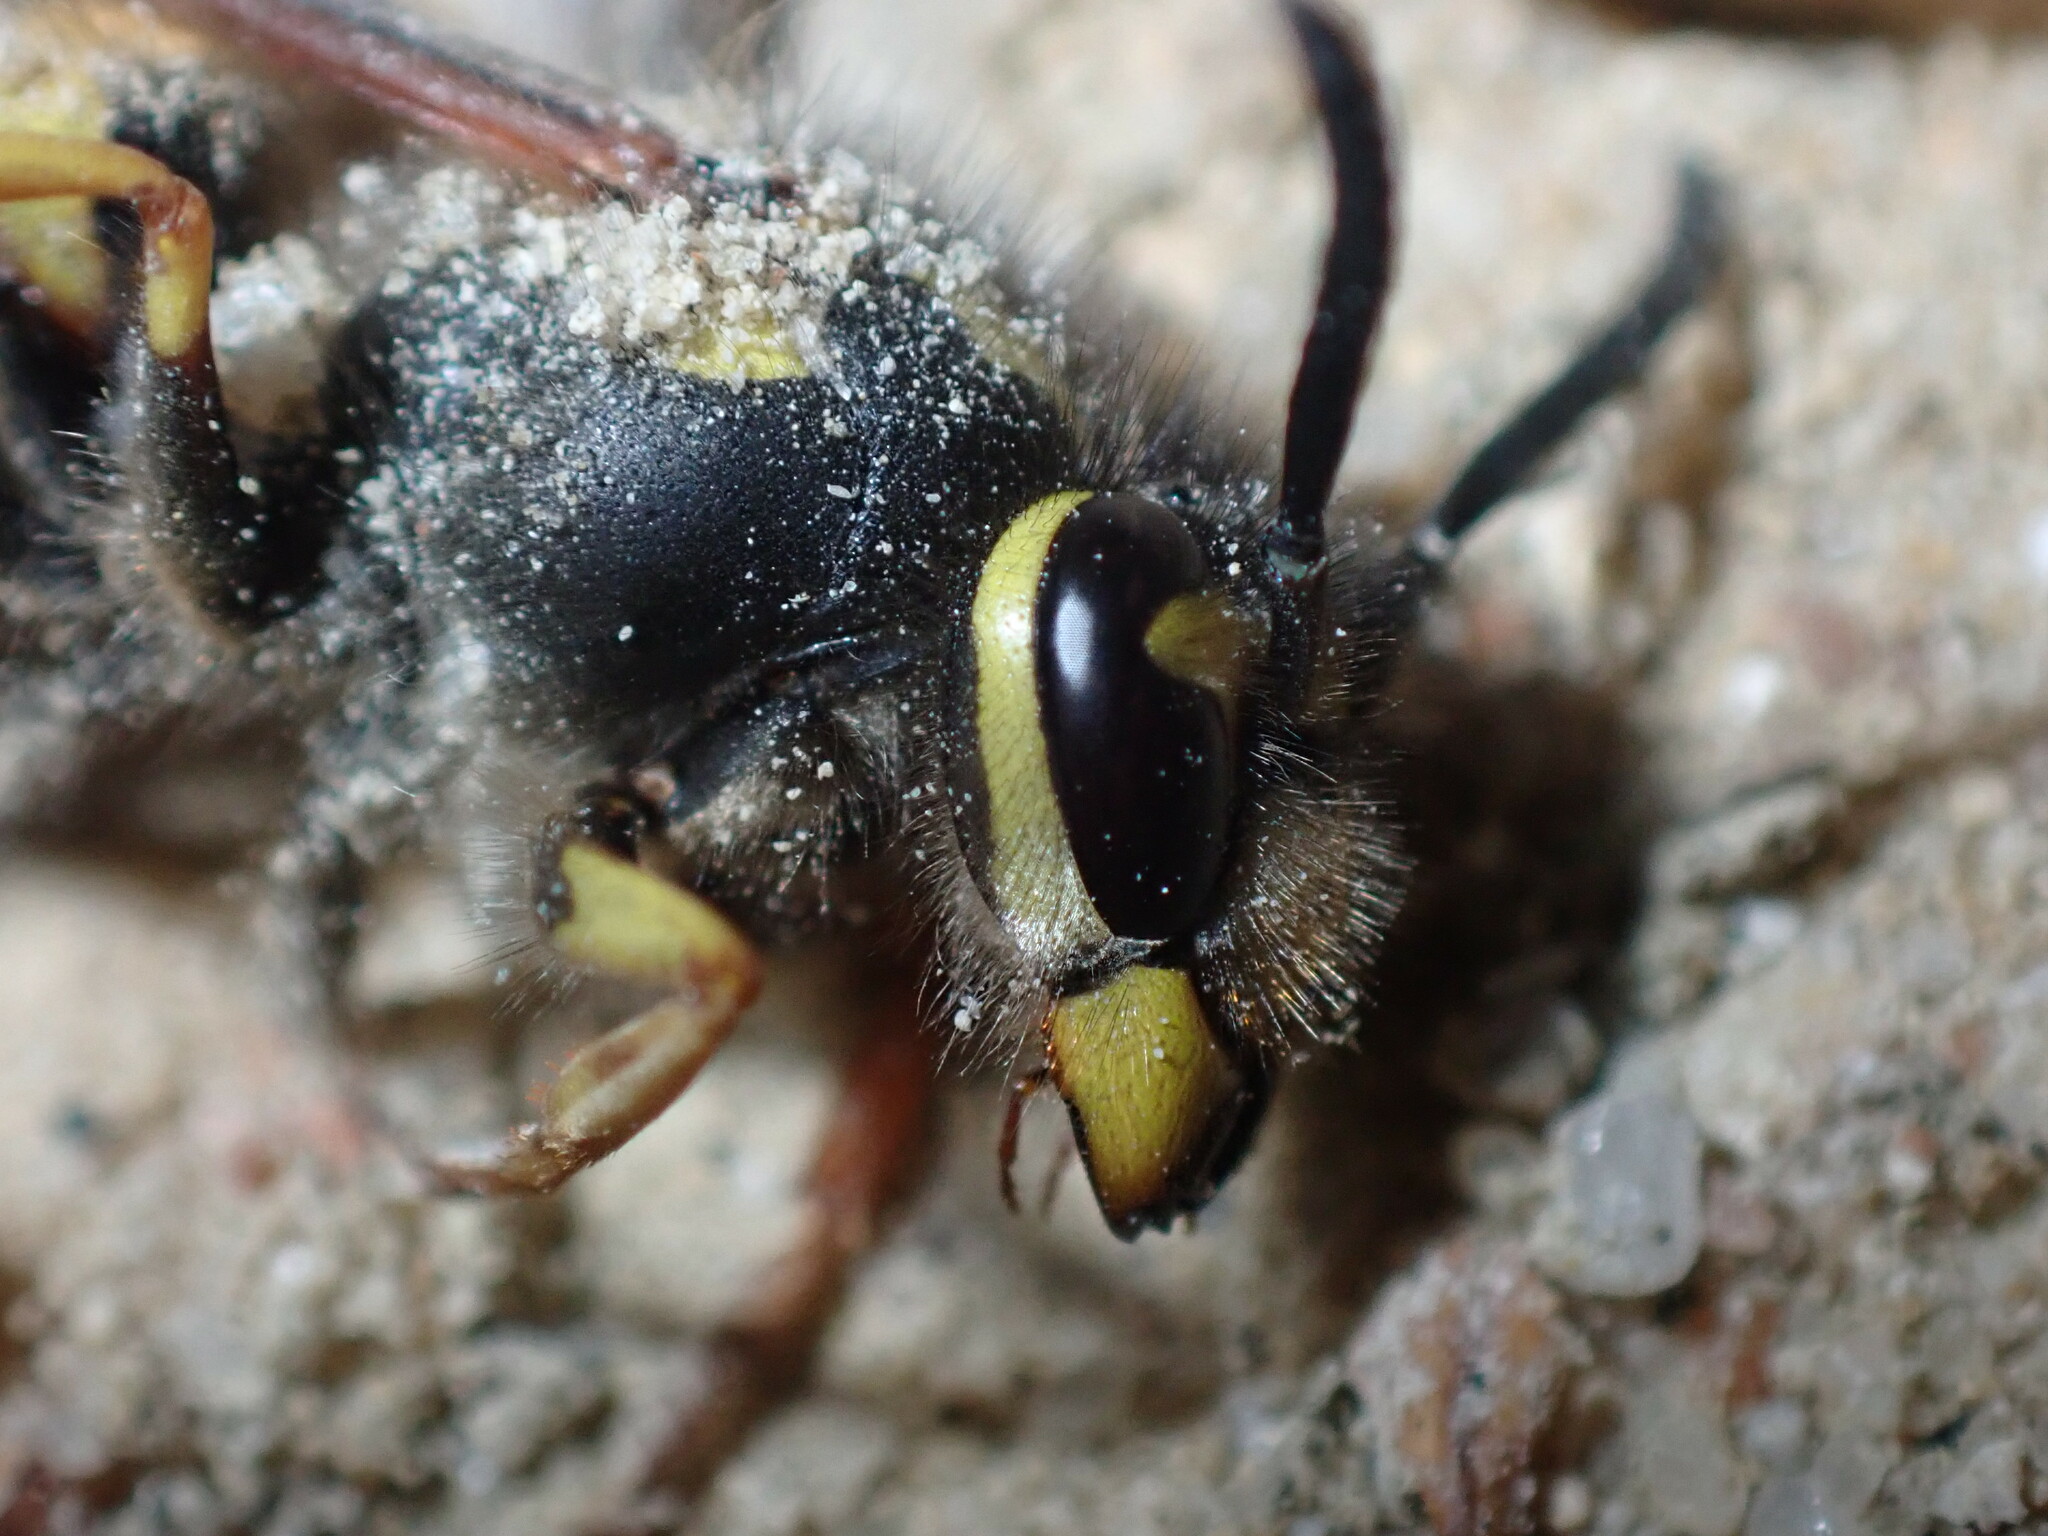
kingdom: Animalia
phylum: Arthropoda
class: Insecta
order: Hymenoptera
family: Vespidae
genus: Vespula
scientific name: Vespula germanica
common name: German wasp
